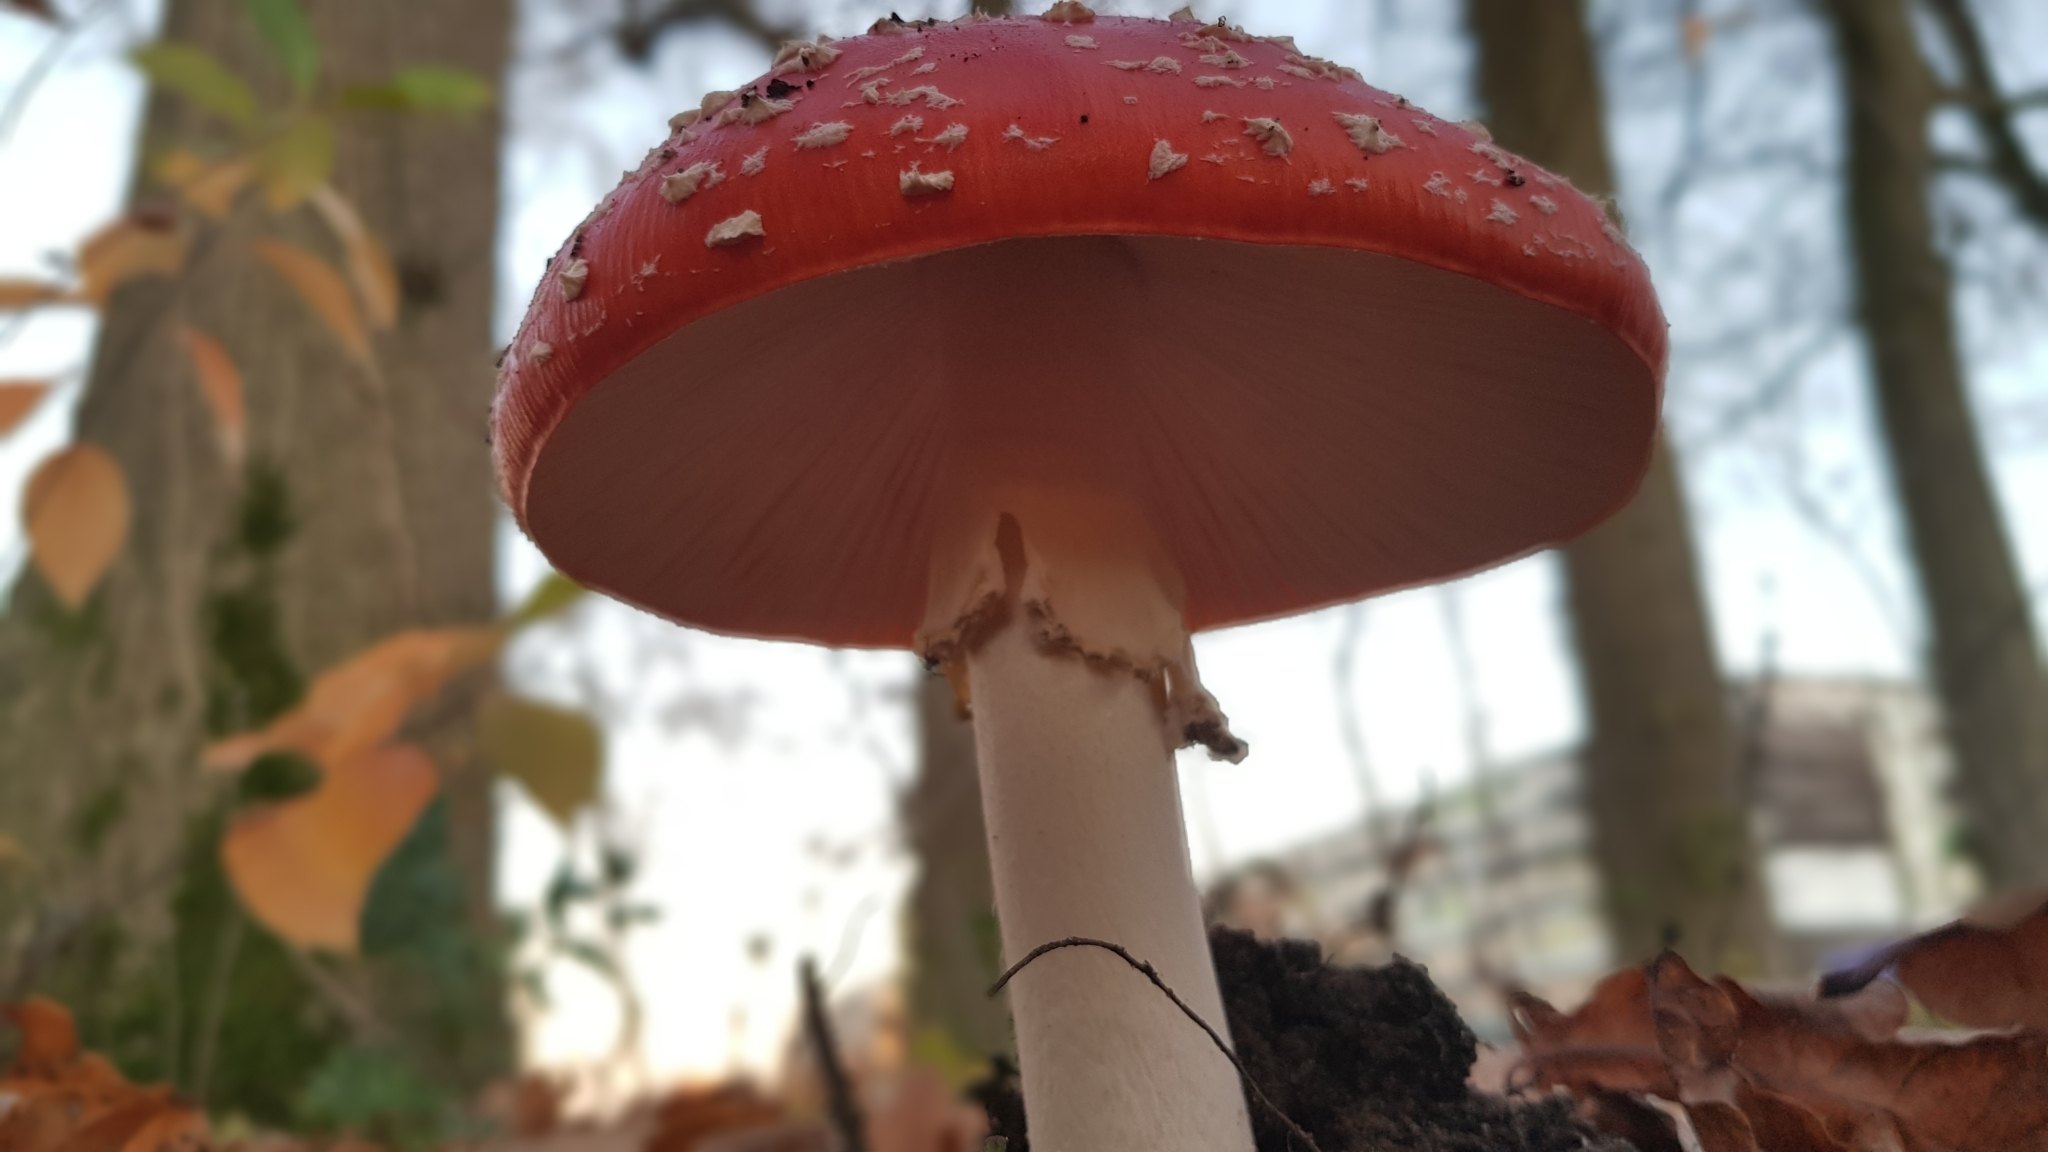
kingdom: Fungi
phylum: Basidiomycota
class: Agaricomycetes
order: Agaricales
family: Amanitaceae
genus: Amanita
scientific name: Amanita muscaria
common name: Fly agaric
